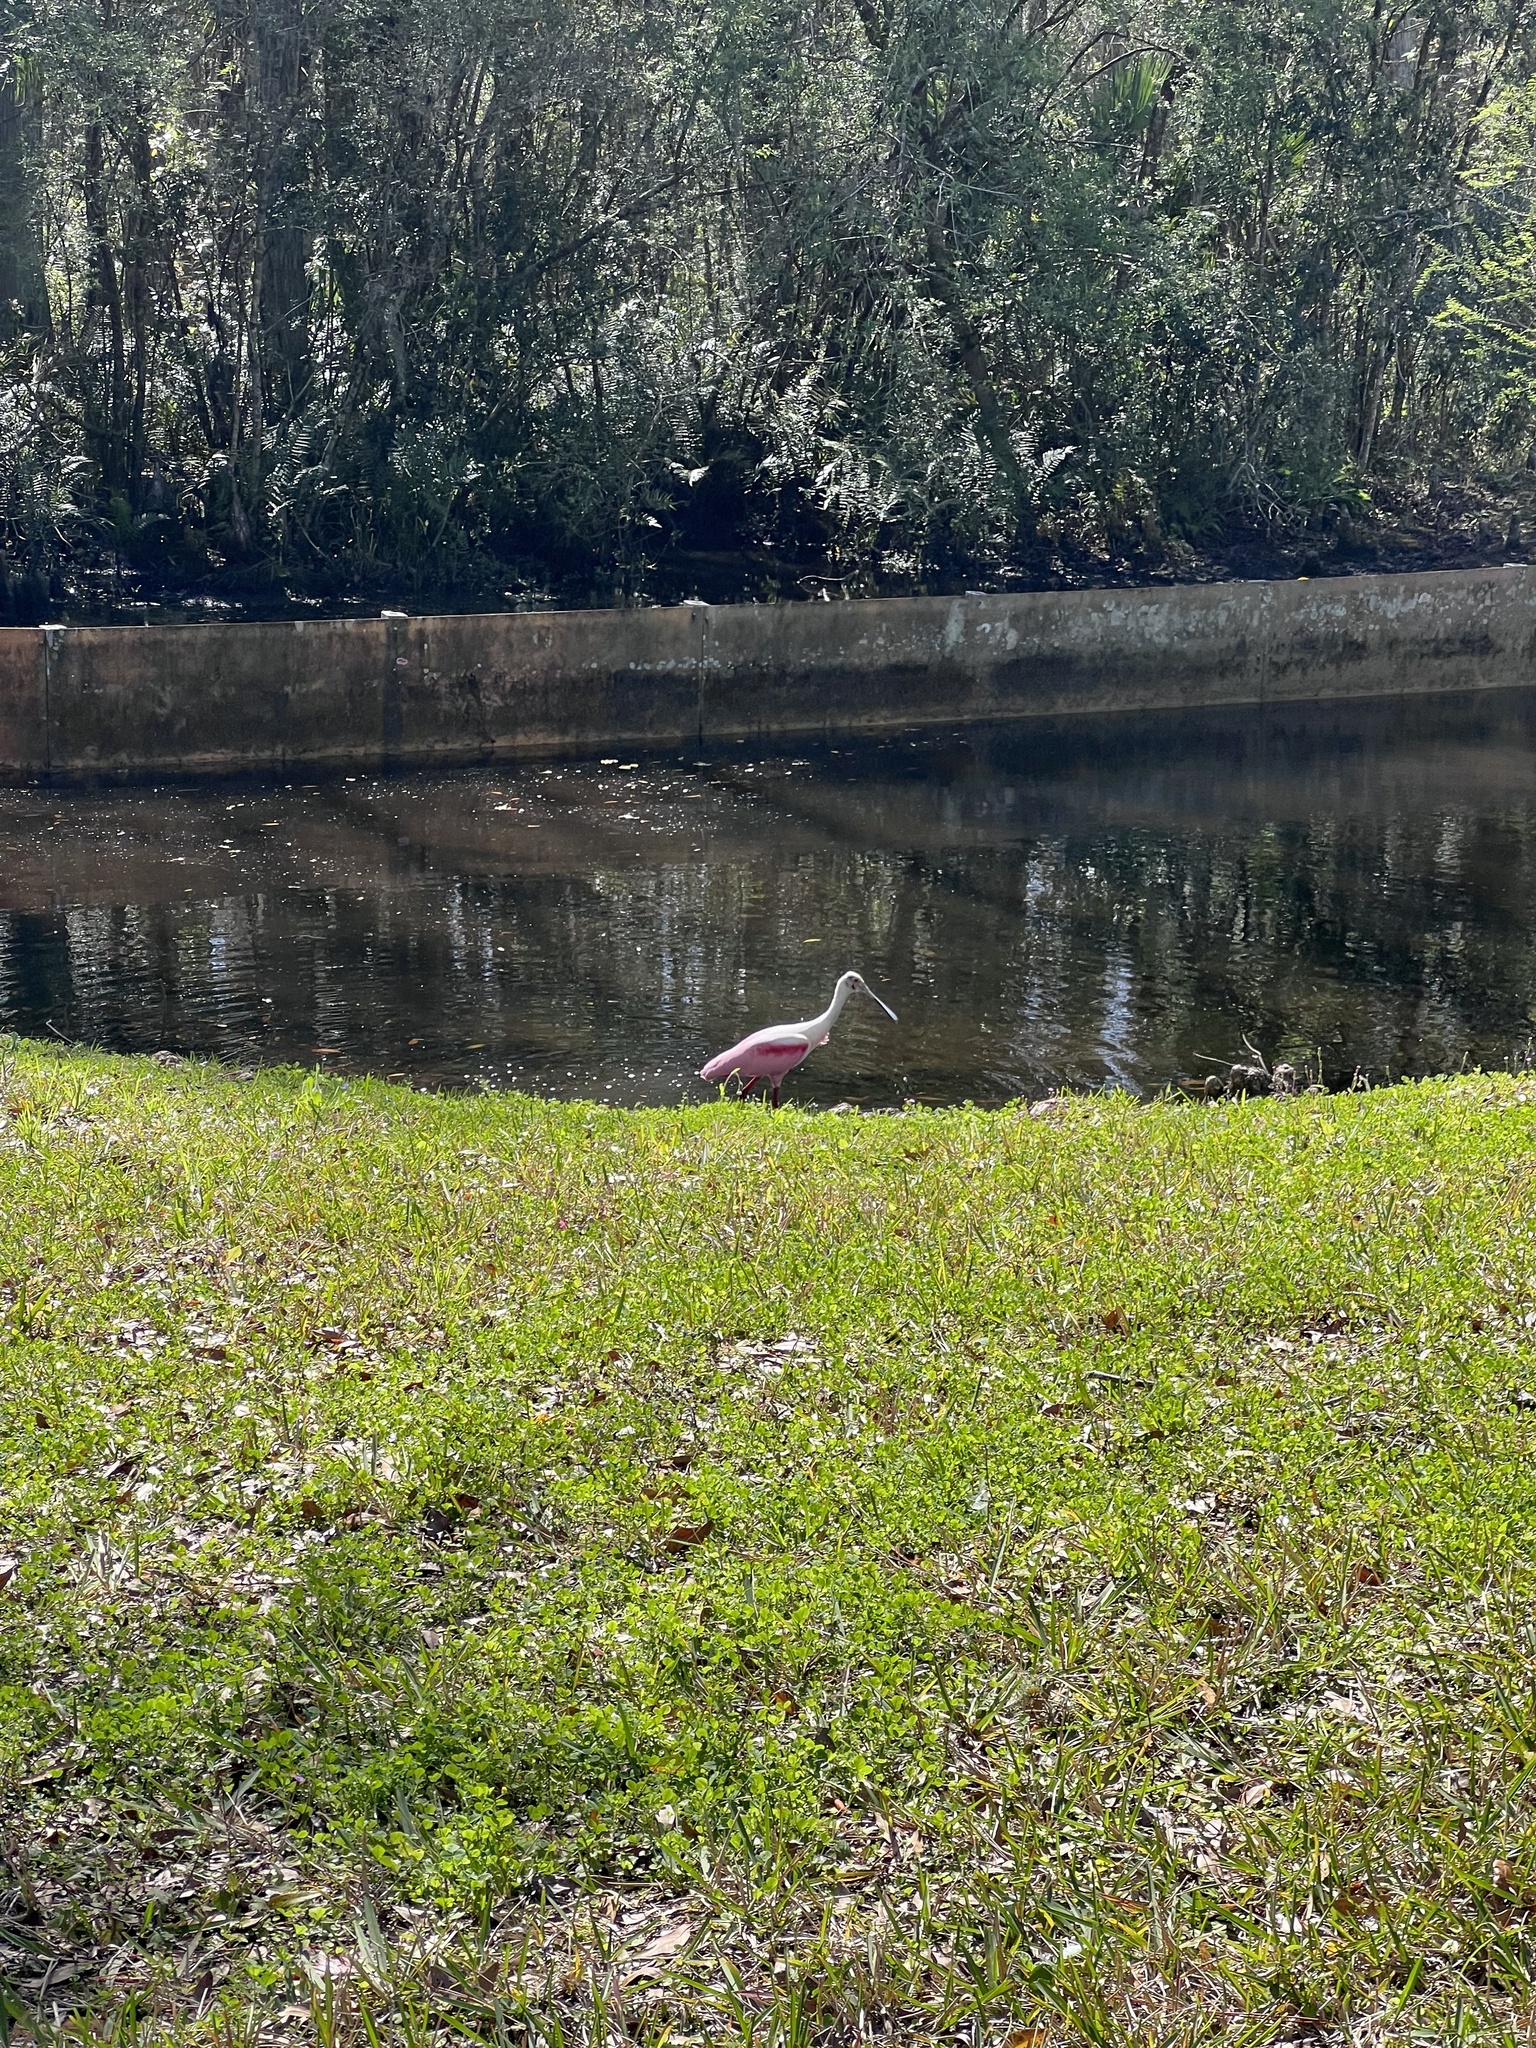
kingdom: Animalia
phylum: Chordata
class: Aves
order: Pelecaniformes
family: Threskiornithidae
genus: Platalea
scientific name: Platalea ajaja
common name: Roseate spoonbill
